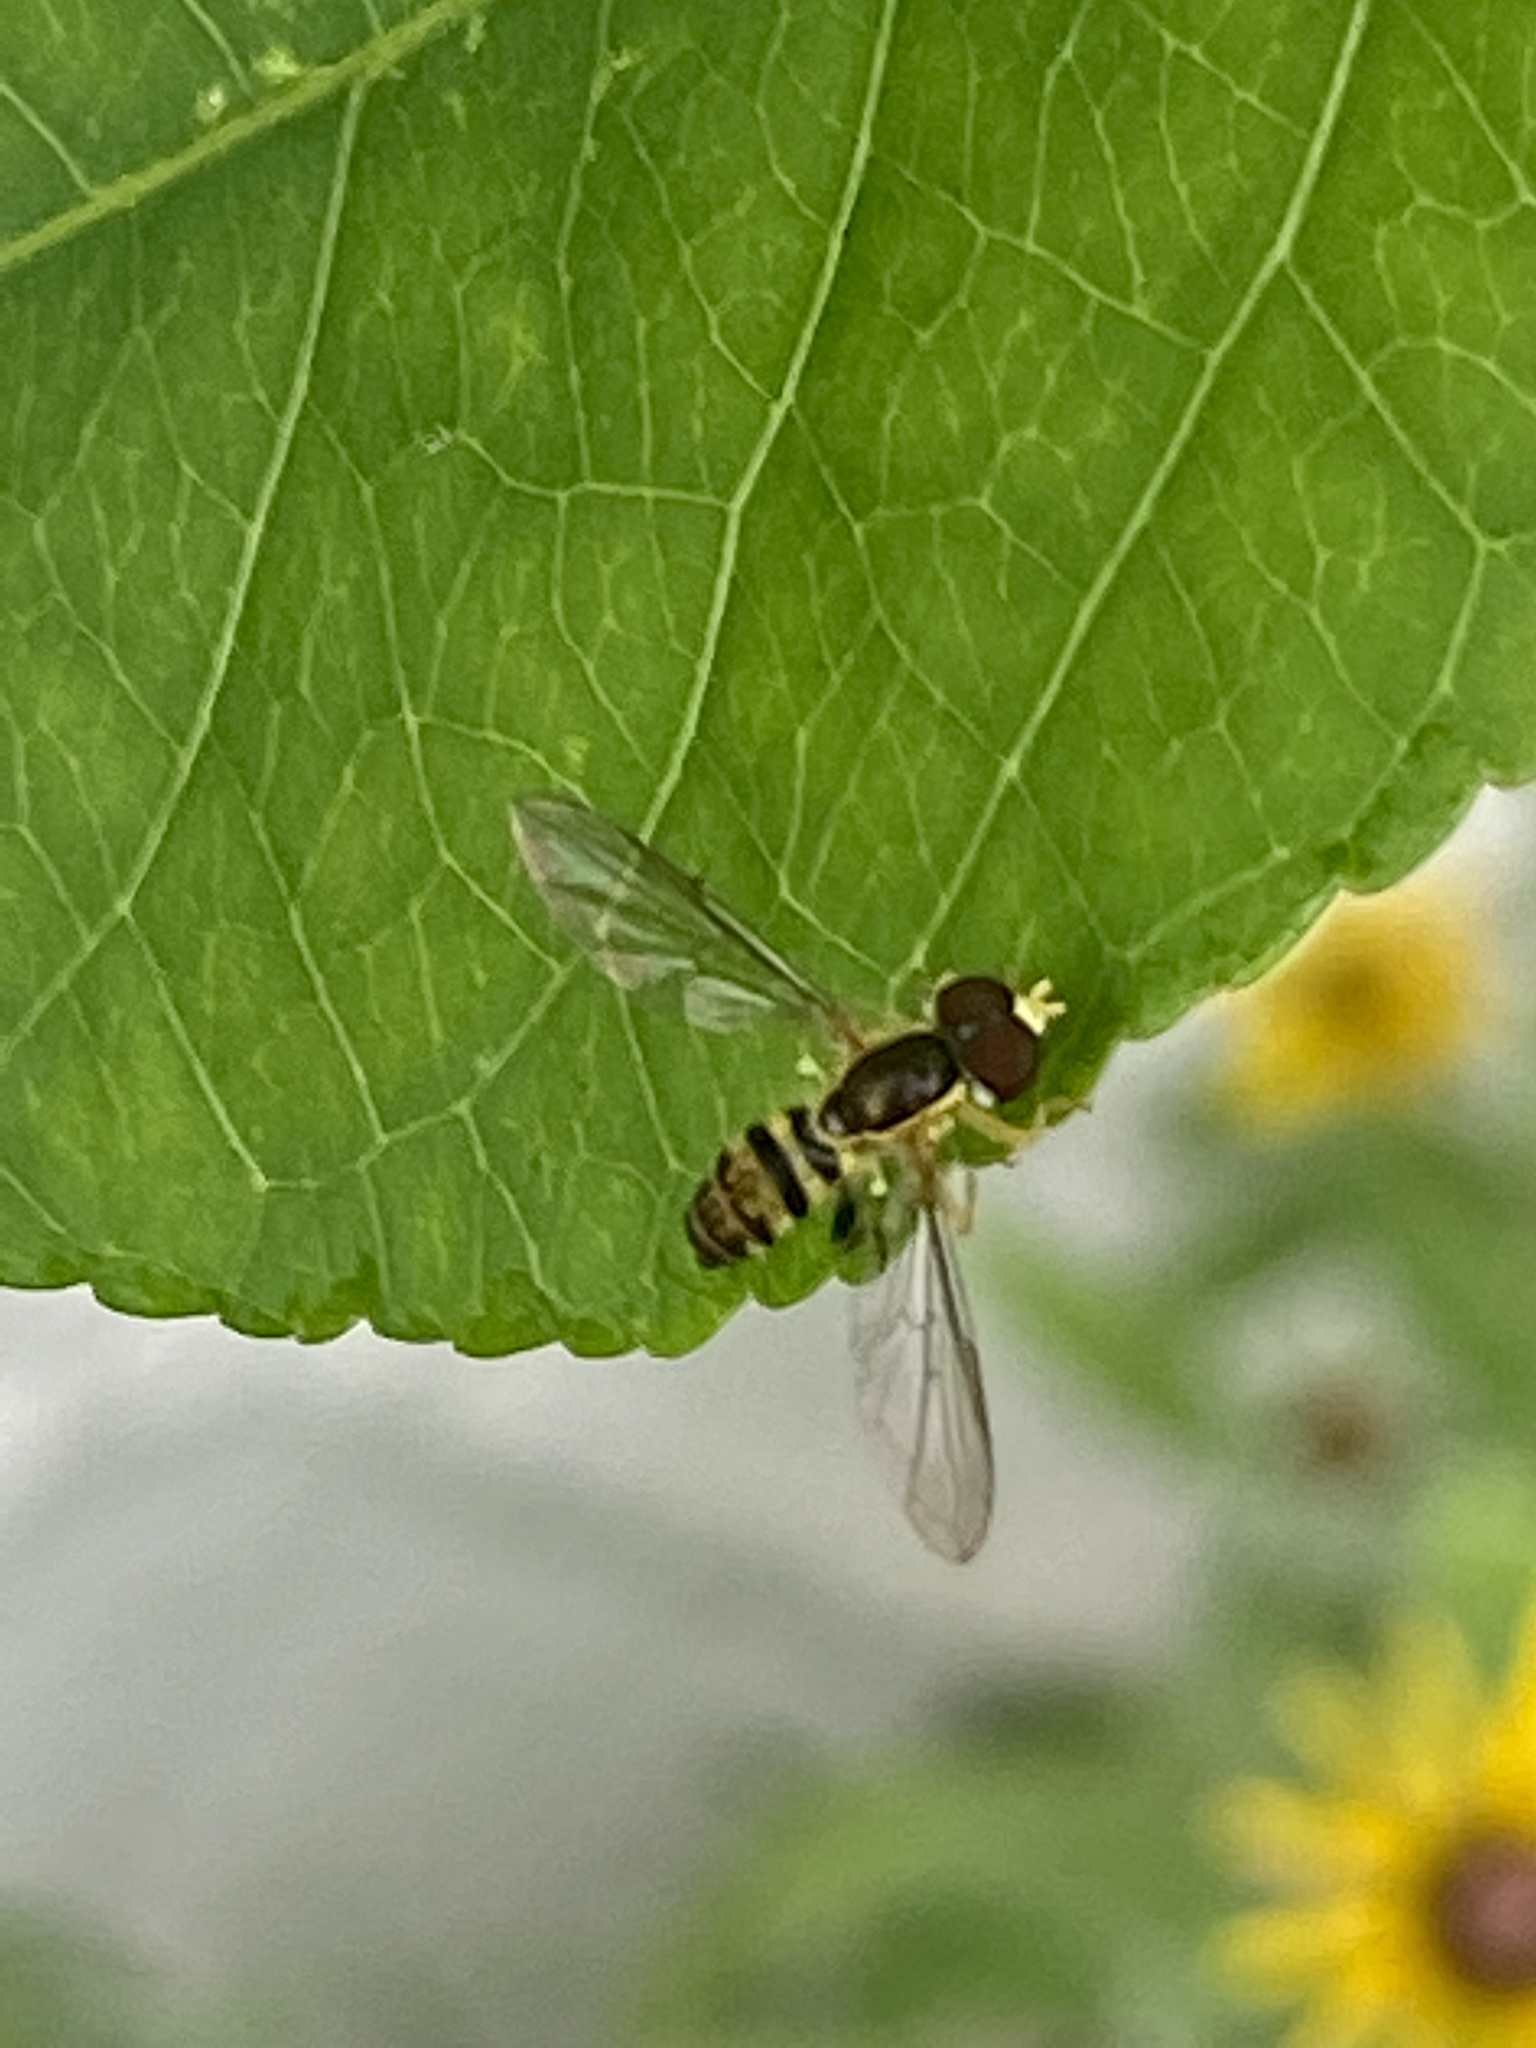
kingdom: Animalia
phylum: Arthropoda
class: Insecta
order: Diptera
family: Syrphidae
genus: Toxomerus
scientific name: Toxomerus geminatus
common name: Eastern calligrapher
